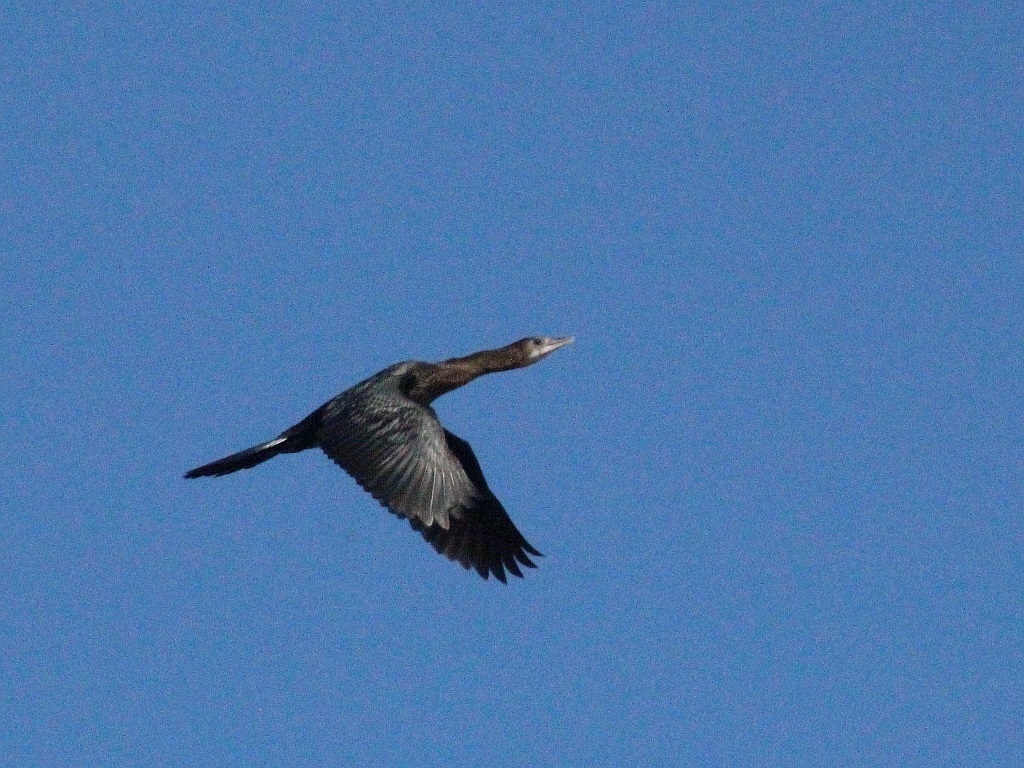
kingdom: Animalia
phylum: Chordata
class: Aves
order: Suliformes
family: Phalacrocoracidae
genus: Microcarbo
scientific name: Microcarbo pygmaeus
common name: Pygmy cormorant
